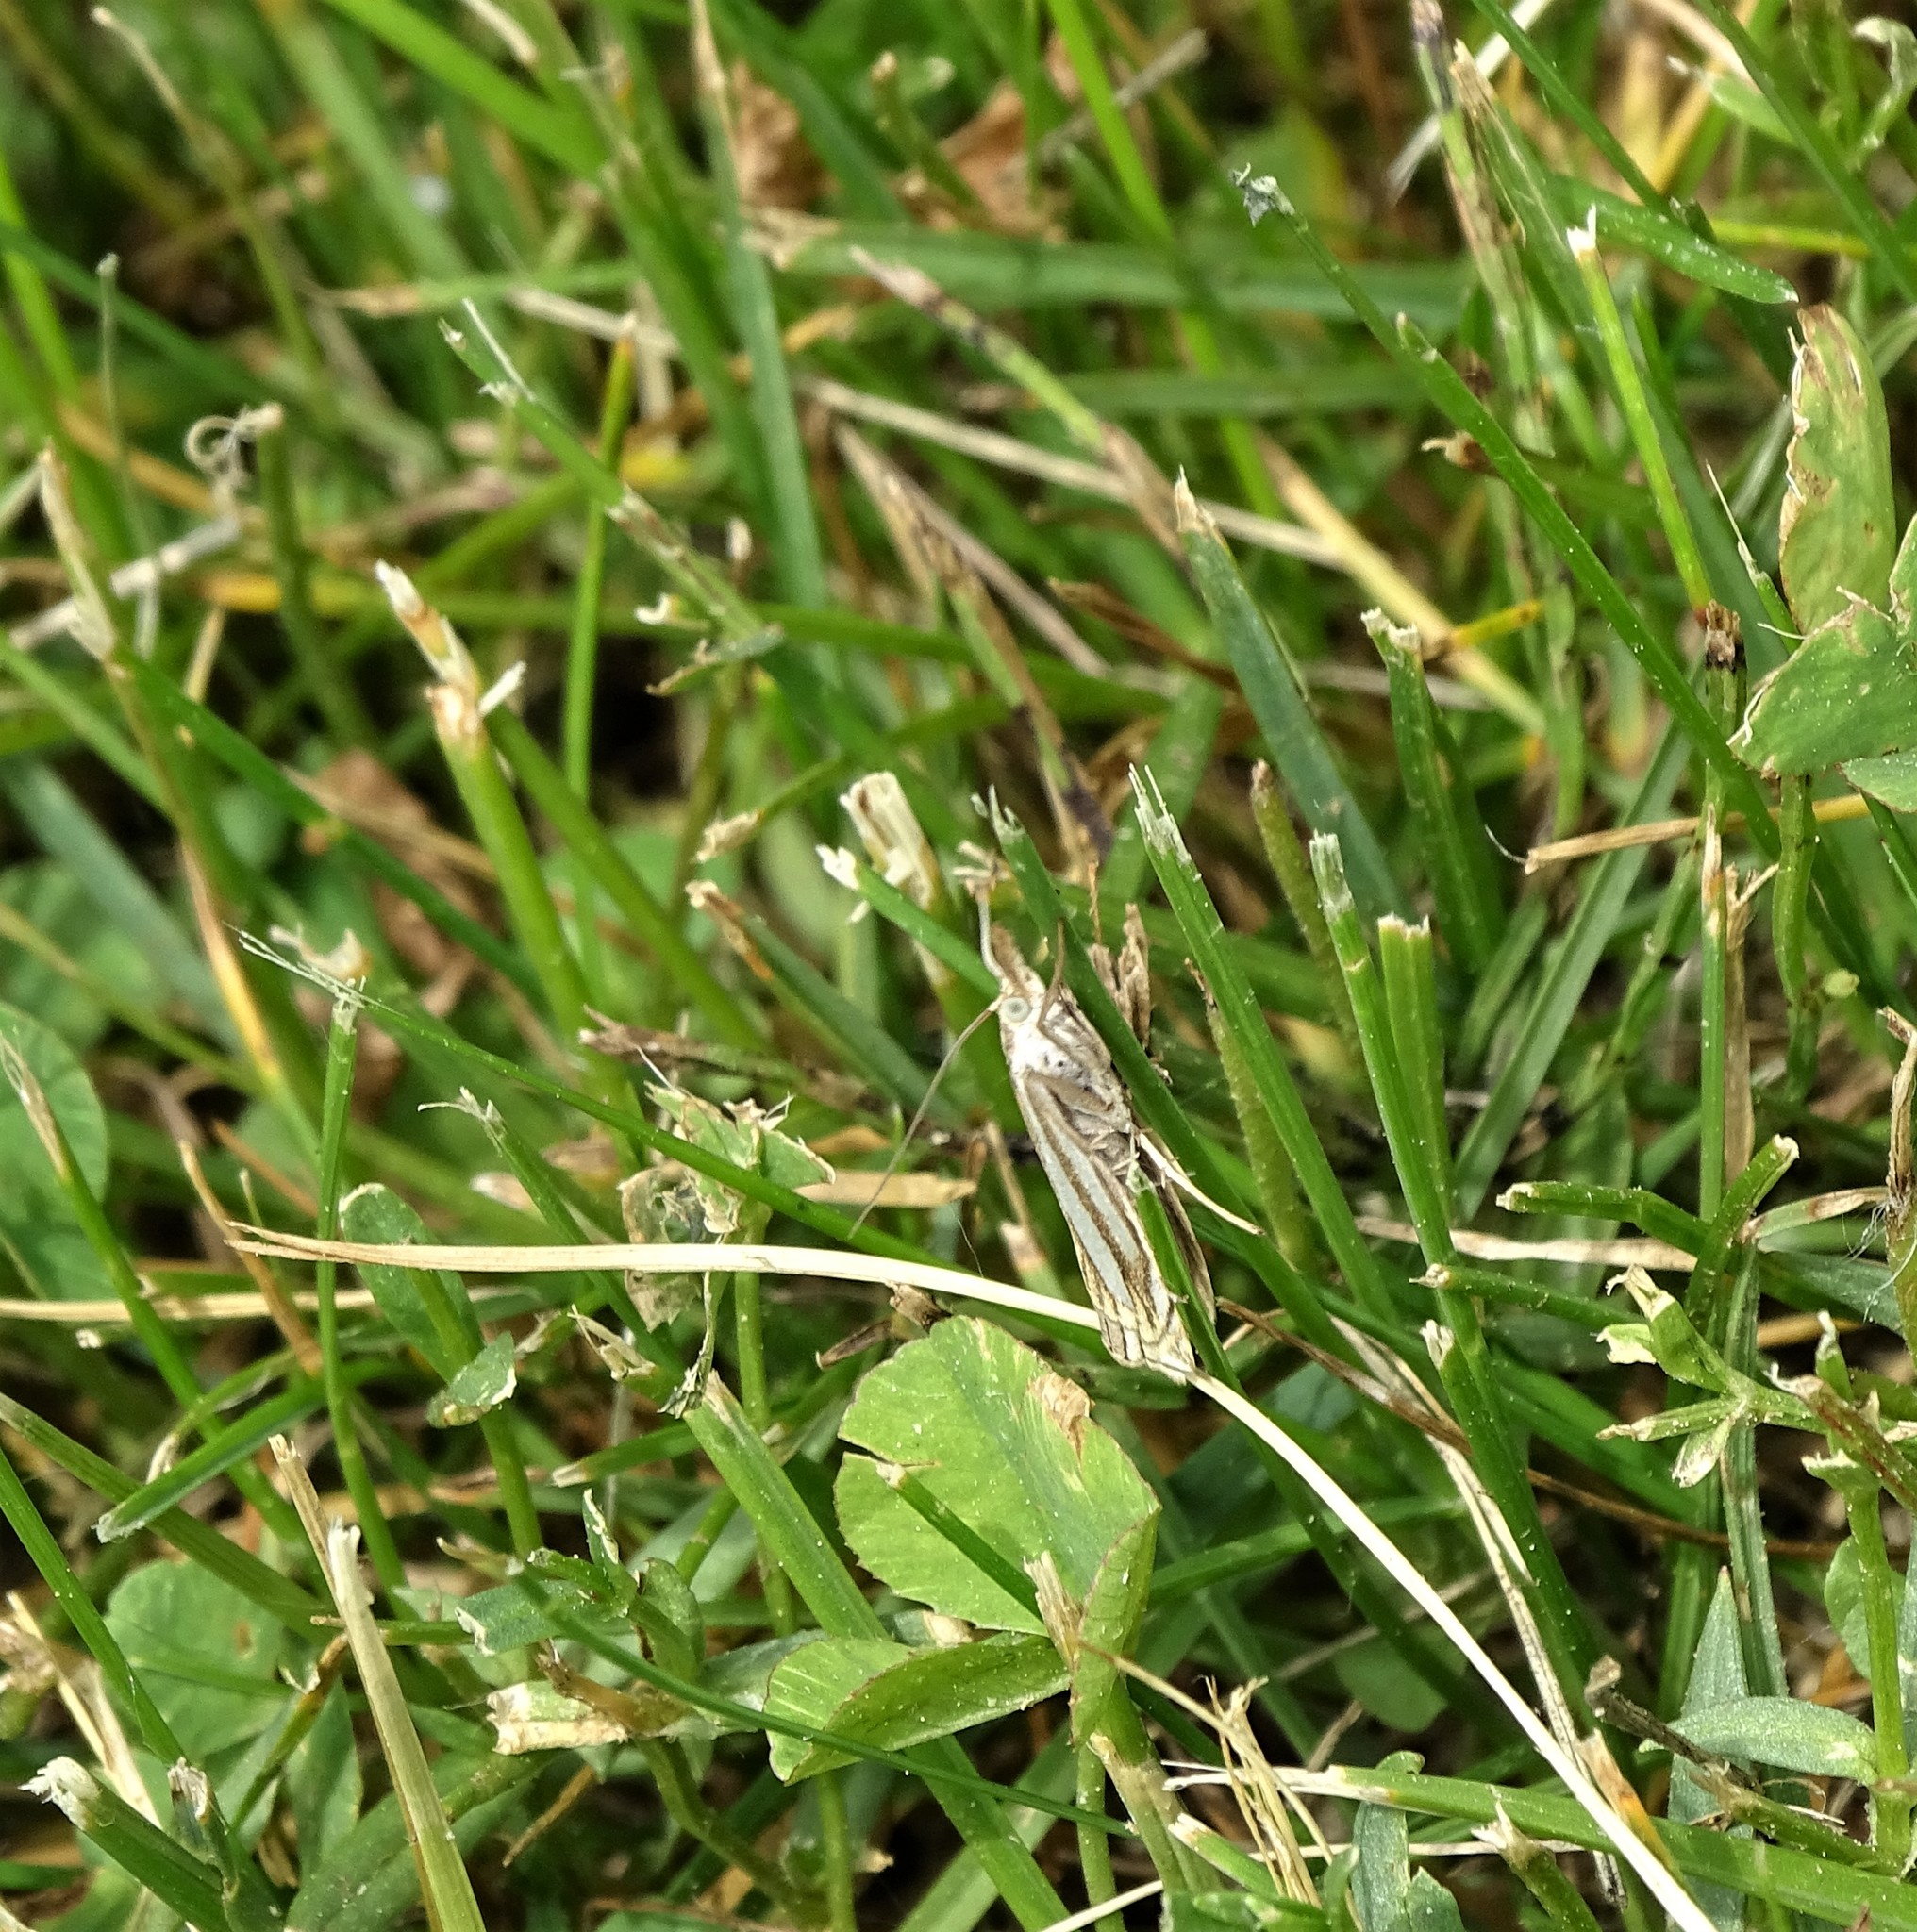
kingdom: Animalia
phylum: Arthropoda
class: Insecta
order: Lepidoptera
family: Crambidae
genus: Crambus
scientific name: Crambus laqueatellus
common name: Eastern grass-veneer
